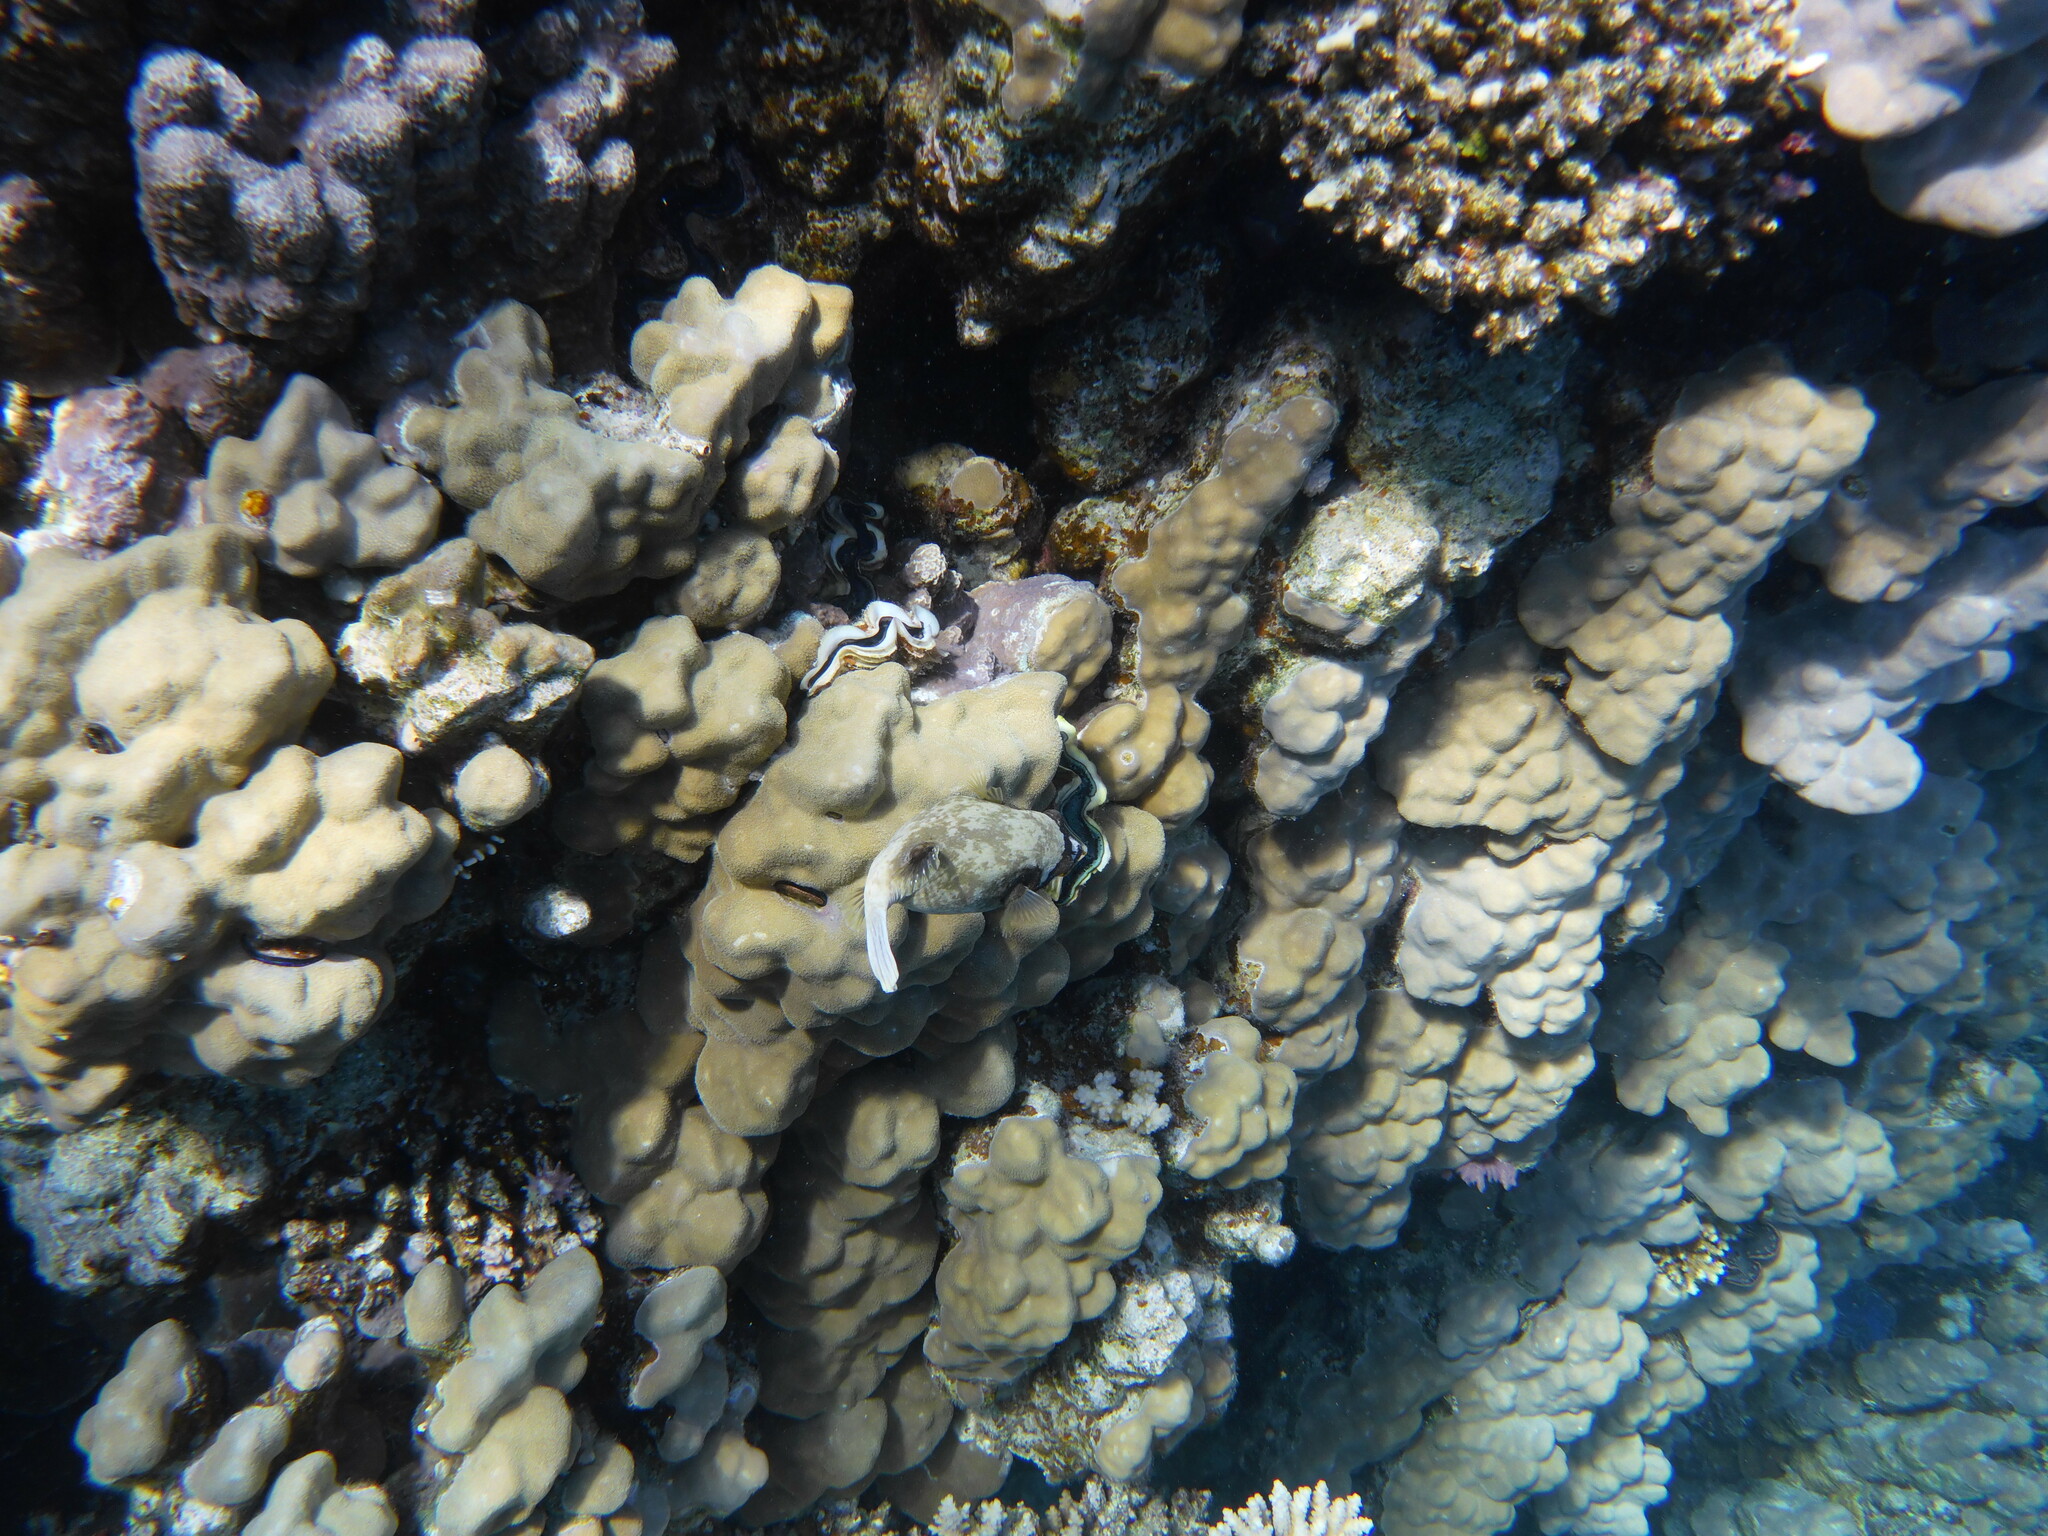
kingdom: Animalia
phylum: Chordata
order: Tetraodontiformes
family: Tetraodontidae
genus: Arothron
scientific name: Arothron diadematus
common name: Masked puffer
